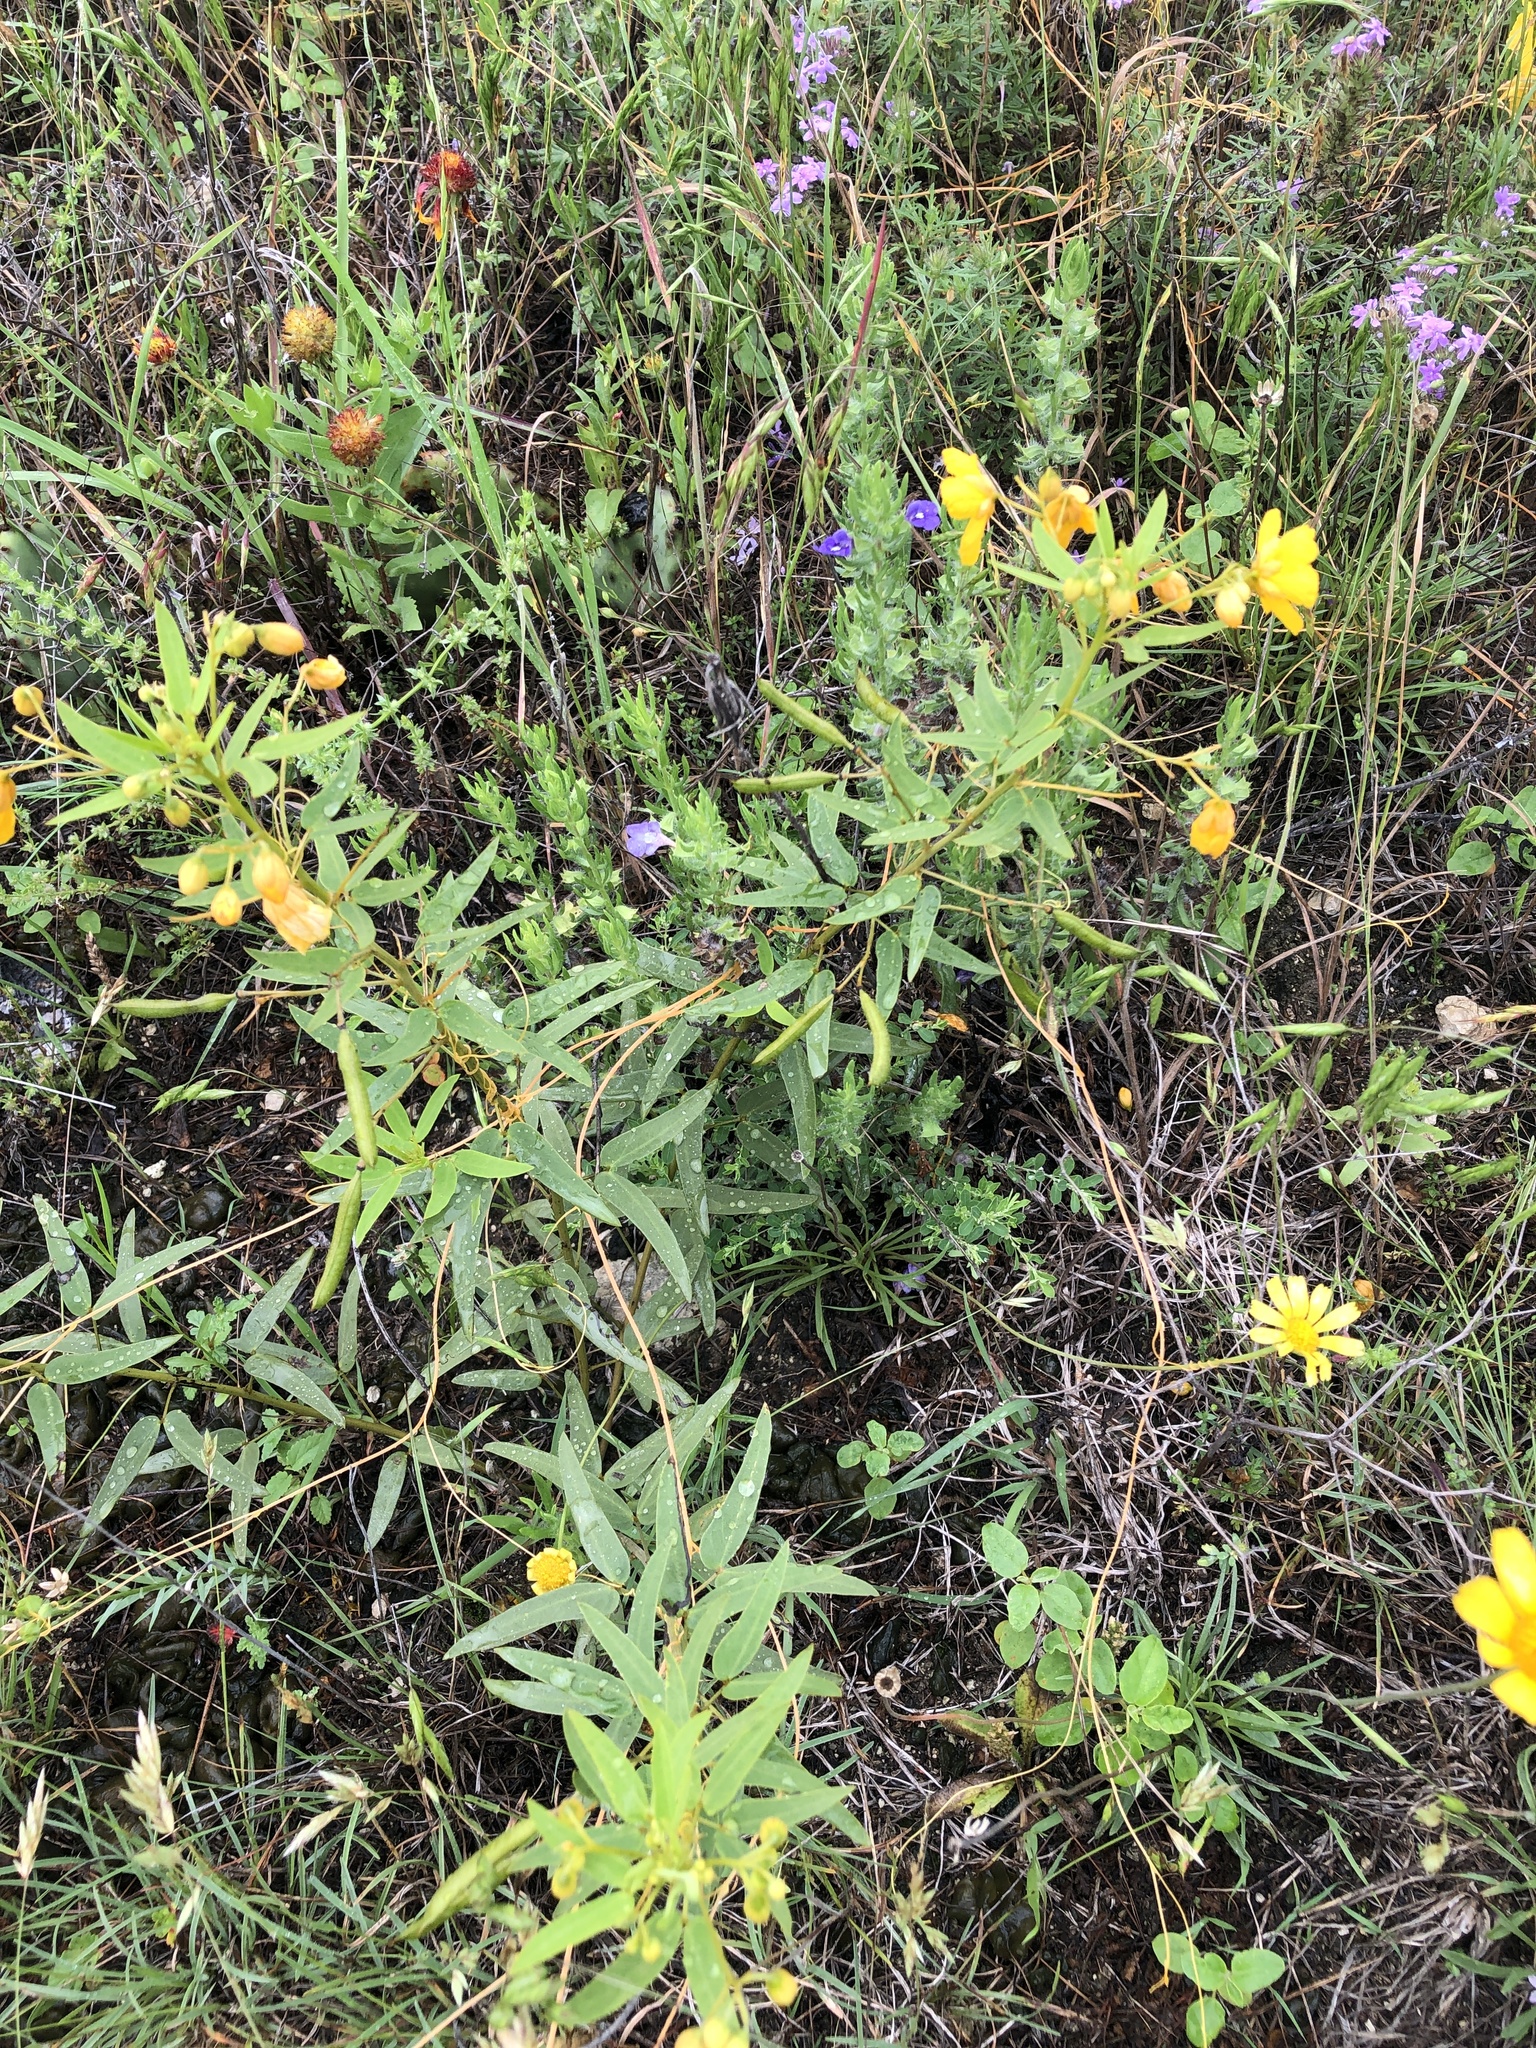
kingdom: Plantae
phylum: Tracheophyta
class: Magnoliopsida
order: Fabales
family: Fabaceae
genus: Senna
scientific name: Senna roemeriana
